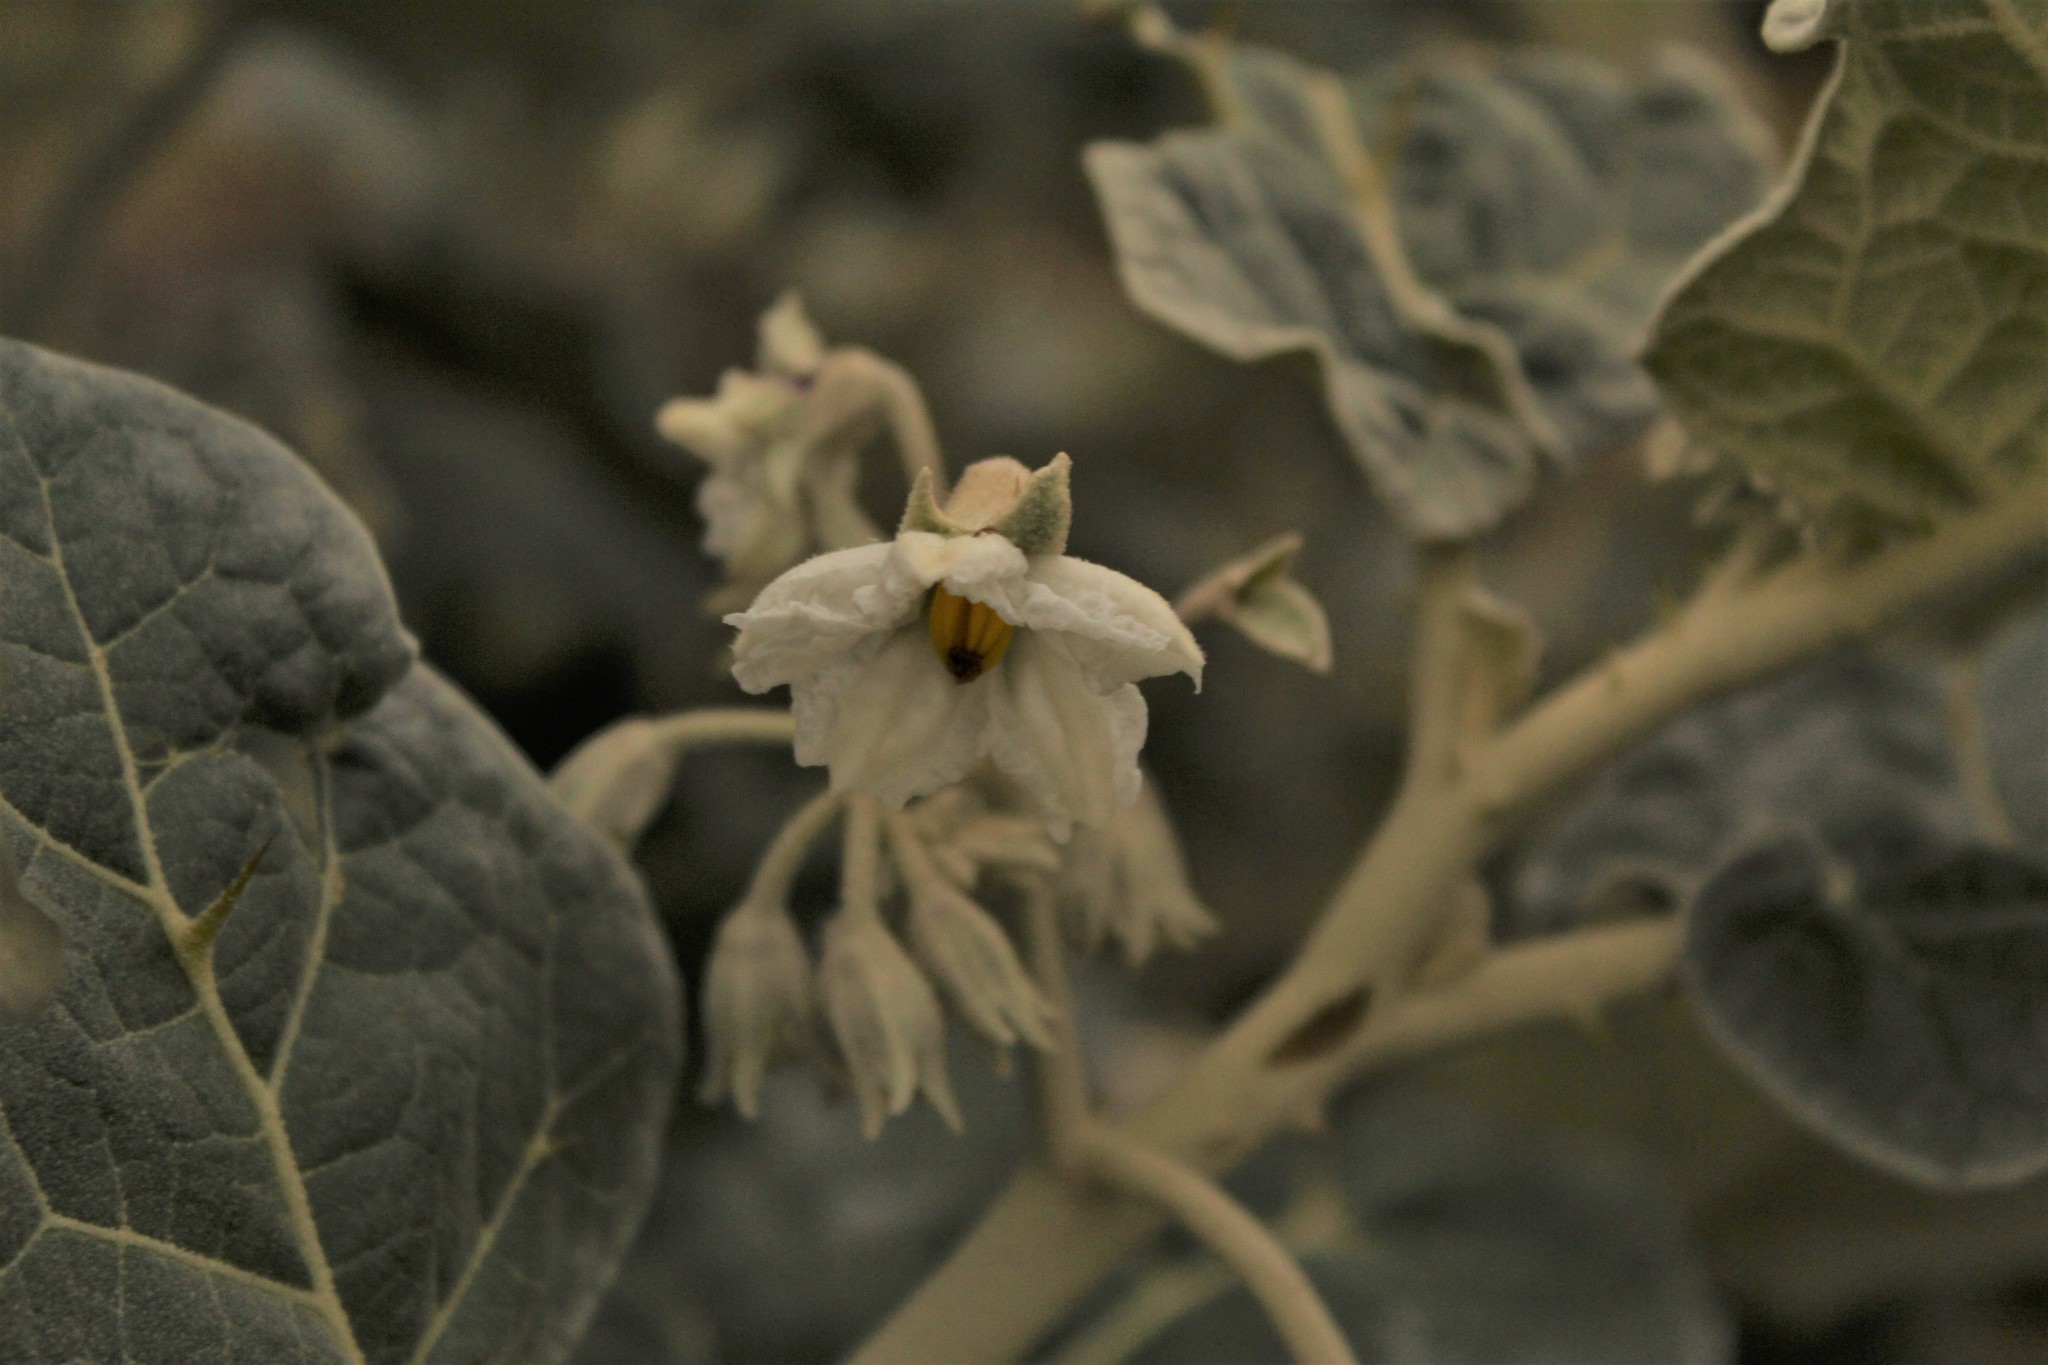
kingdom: Plantae
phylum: Tracheophyta
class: Magnoliopsida
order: Solanales
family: Solanaceae
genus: Solanum
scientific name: Solanum marginatum
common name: Purple african nightshade
